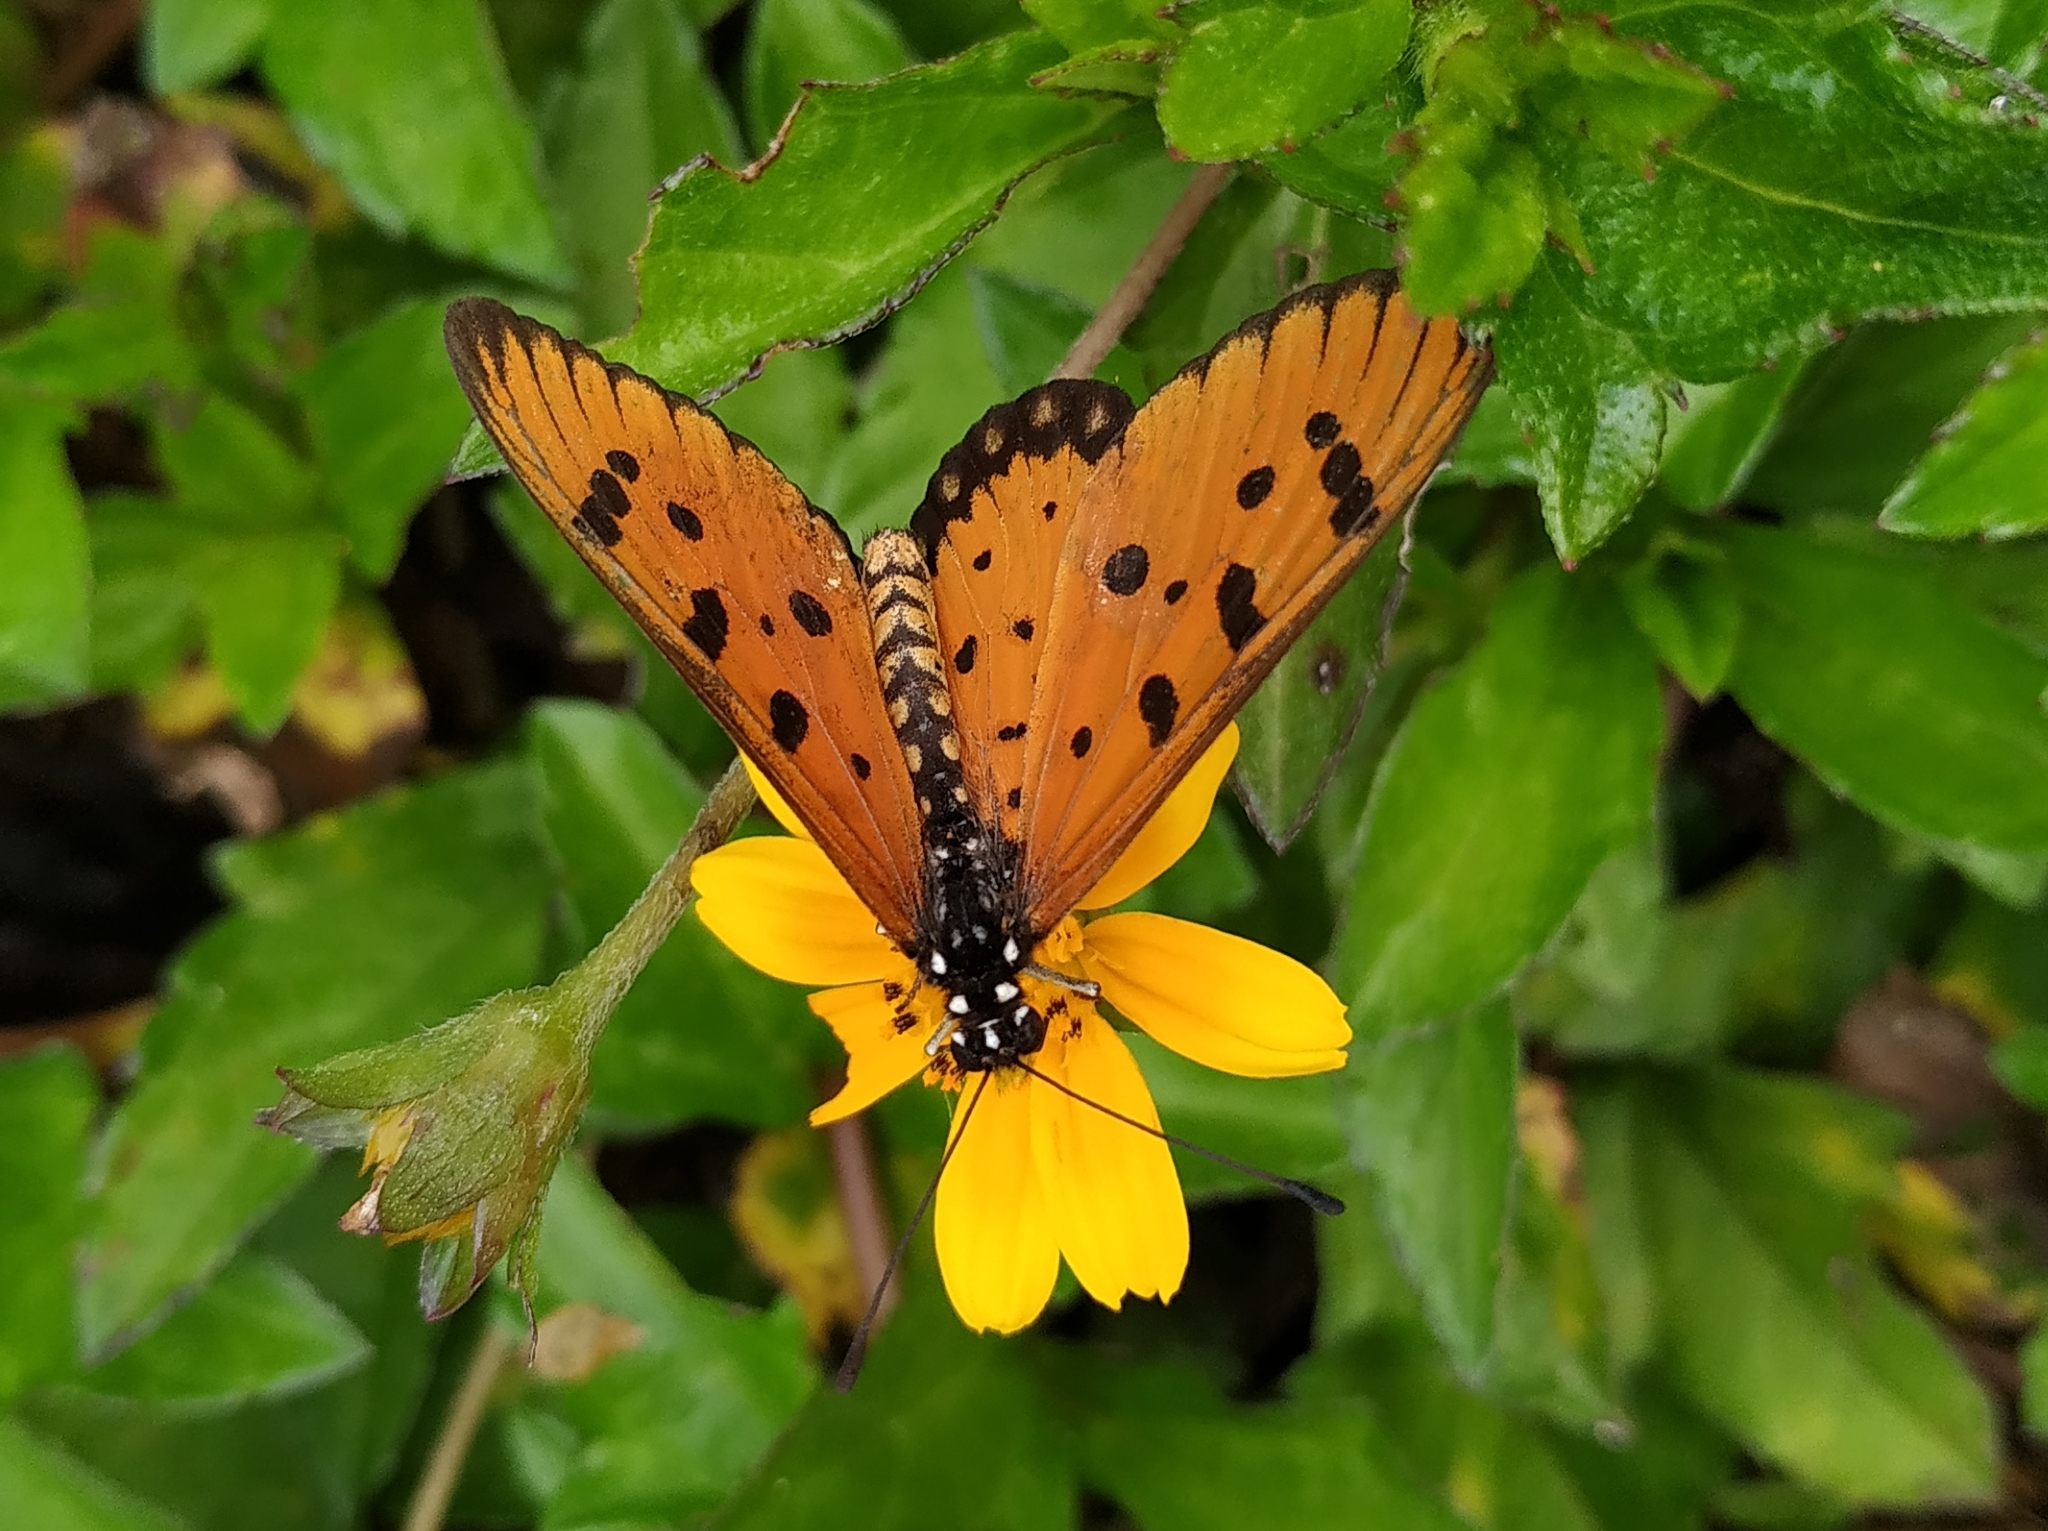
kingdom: Animalia
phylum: Arthropoda
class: Insecta
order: Lepidoptera
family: Nymphalidae
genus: Acraea
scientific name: Acraea terpsicore
